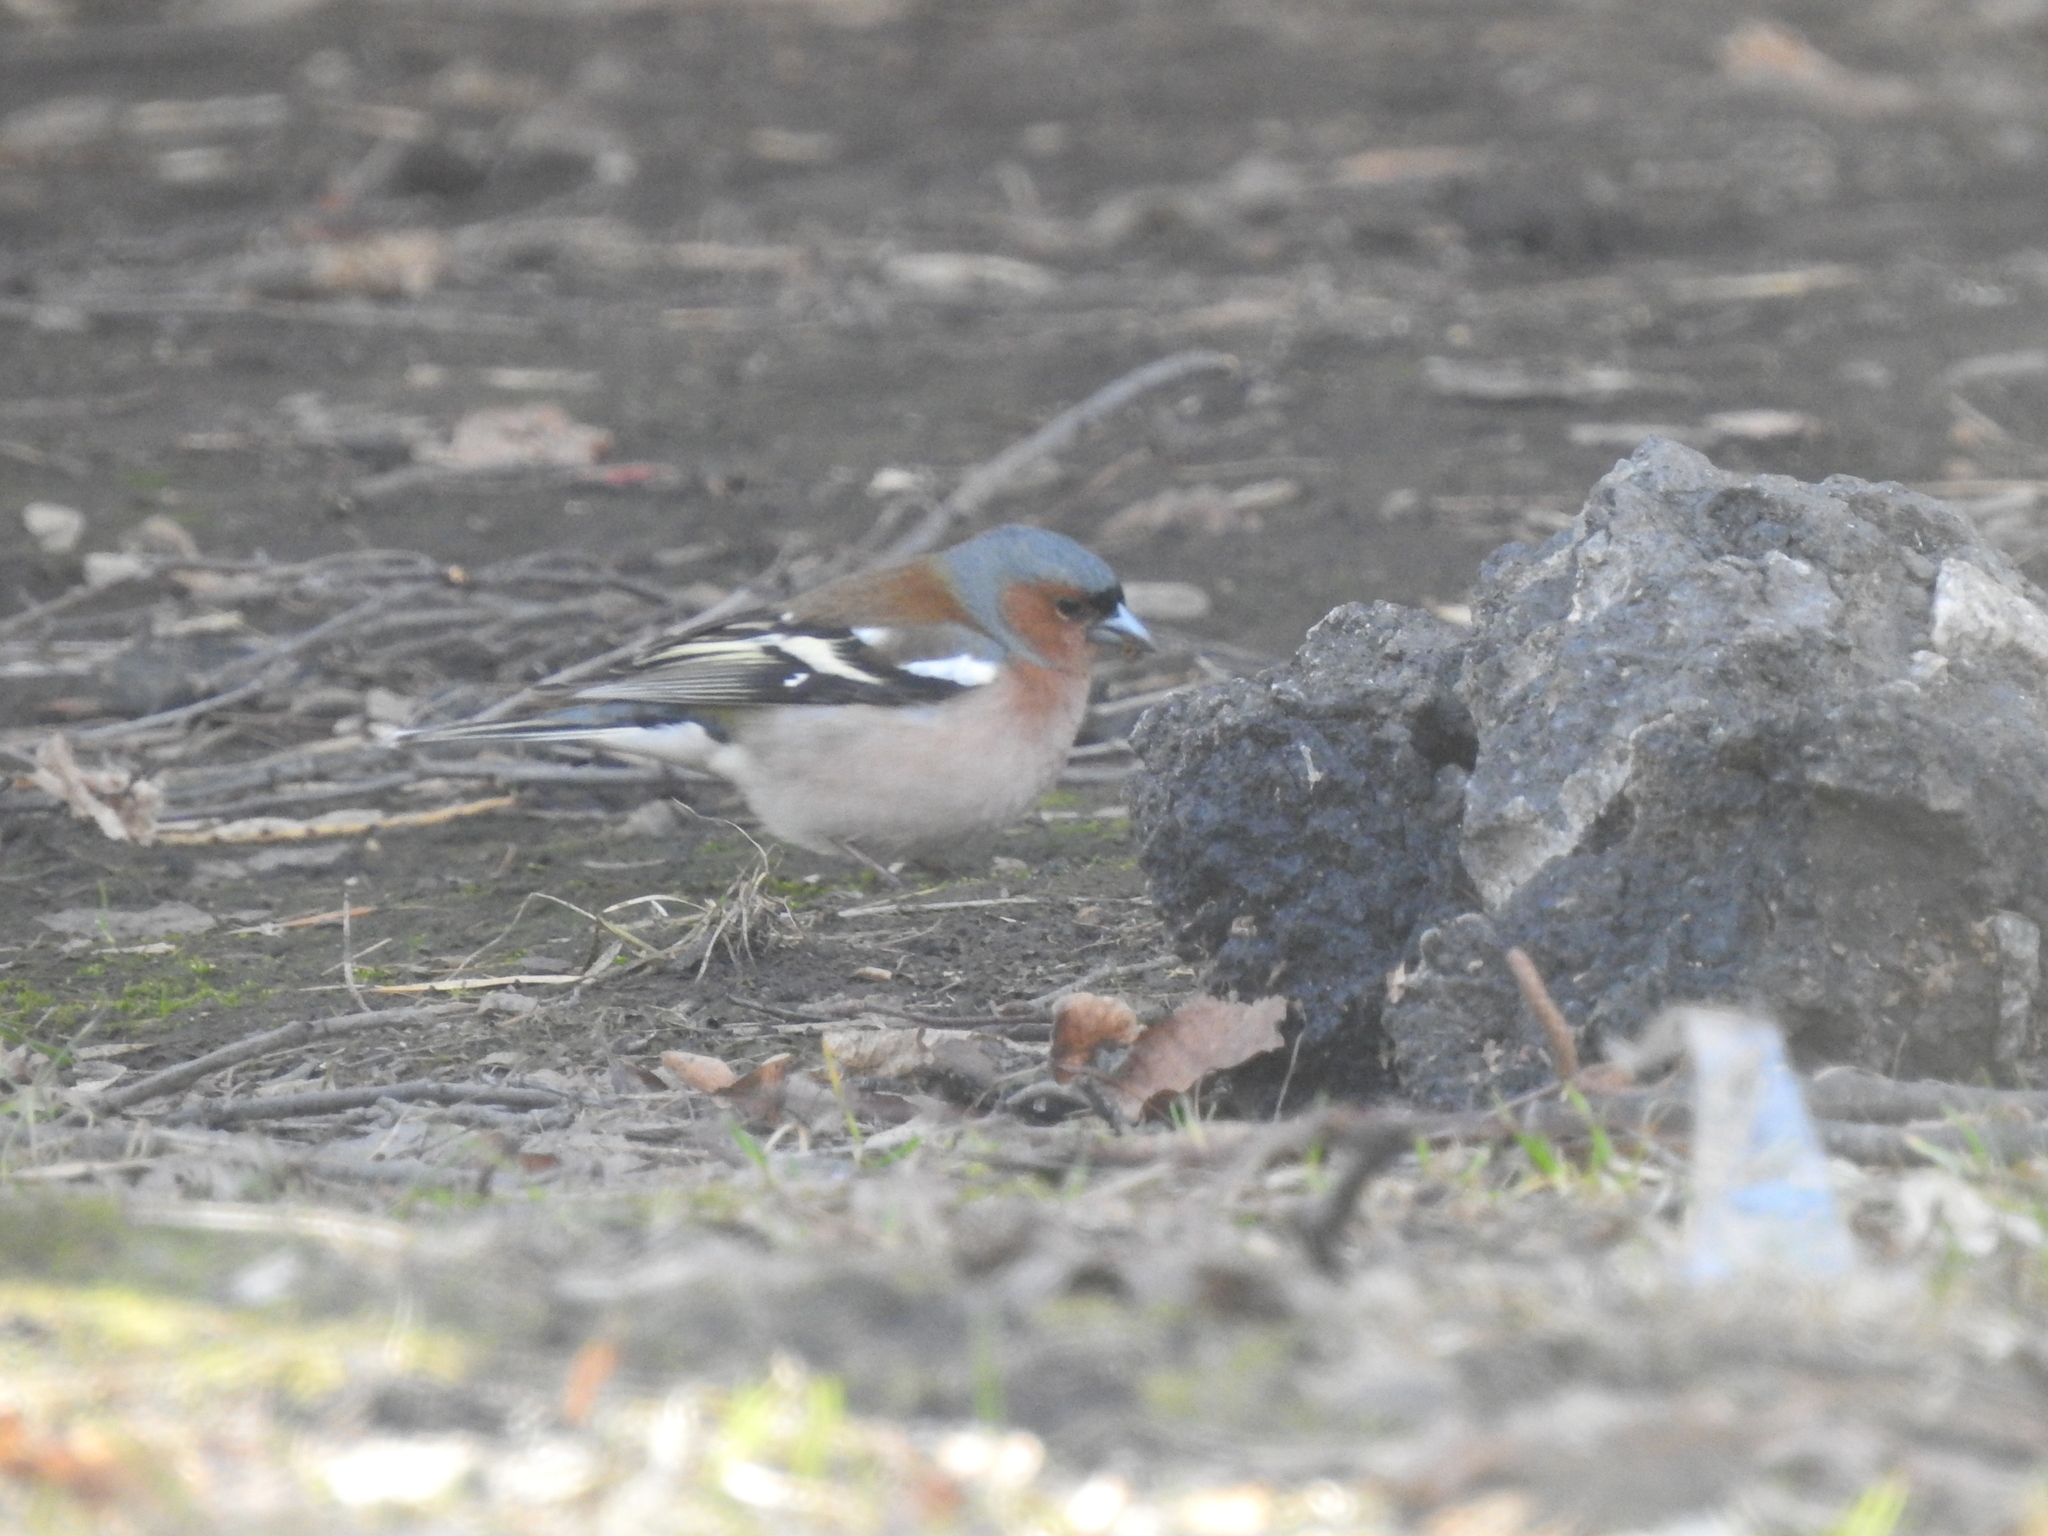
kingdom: Animalia
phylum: Chordata
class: Aves
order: Passeriformes
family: Fringillidae
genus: Fringilla
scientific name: Fringilla coelebs
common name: Common chaffinch
